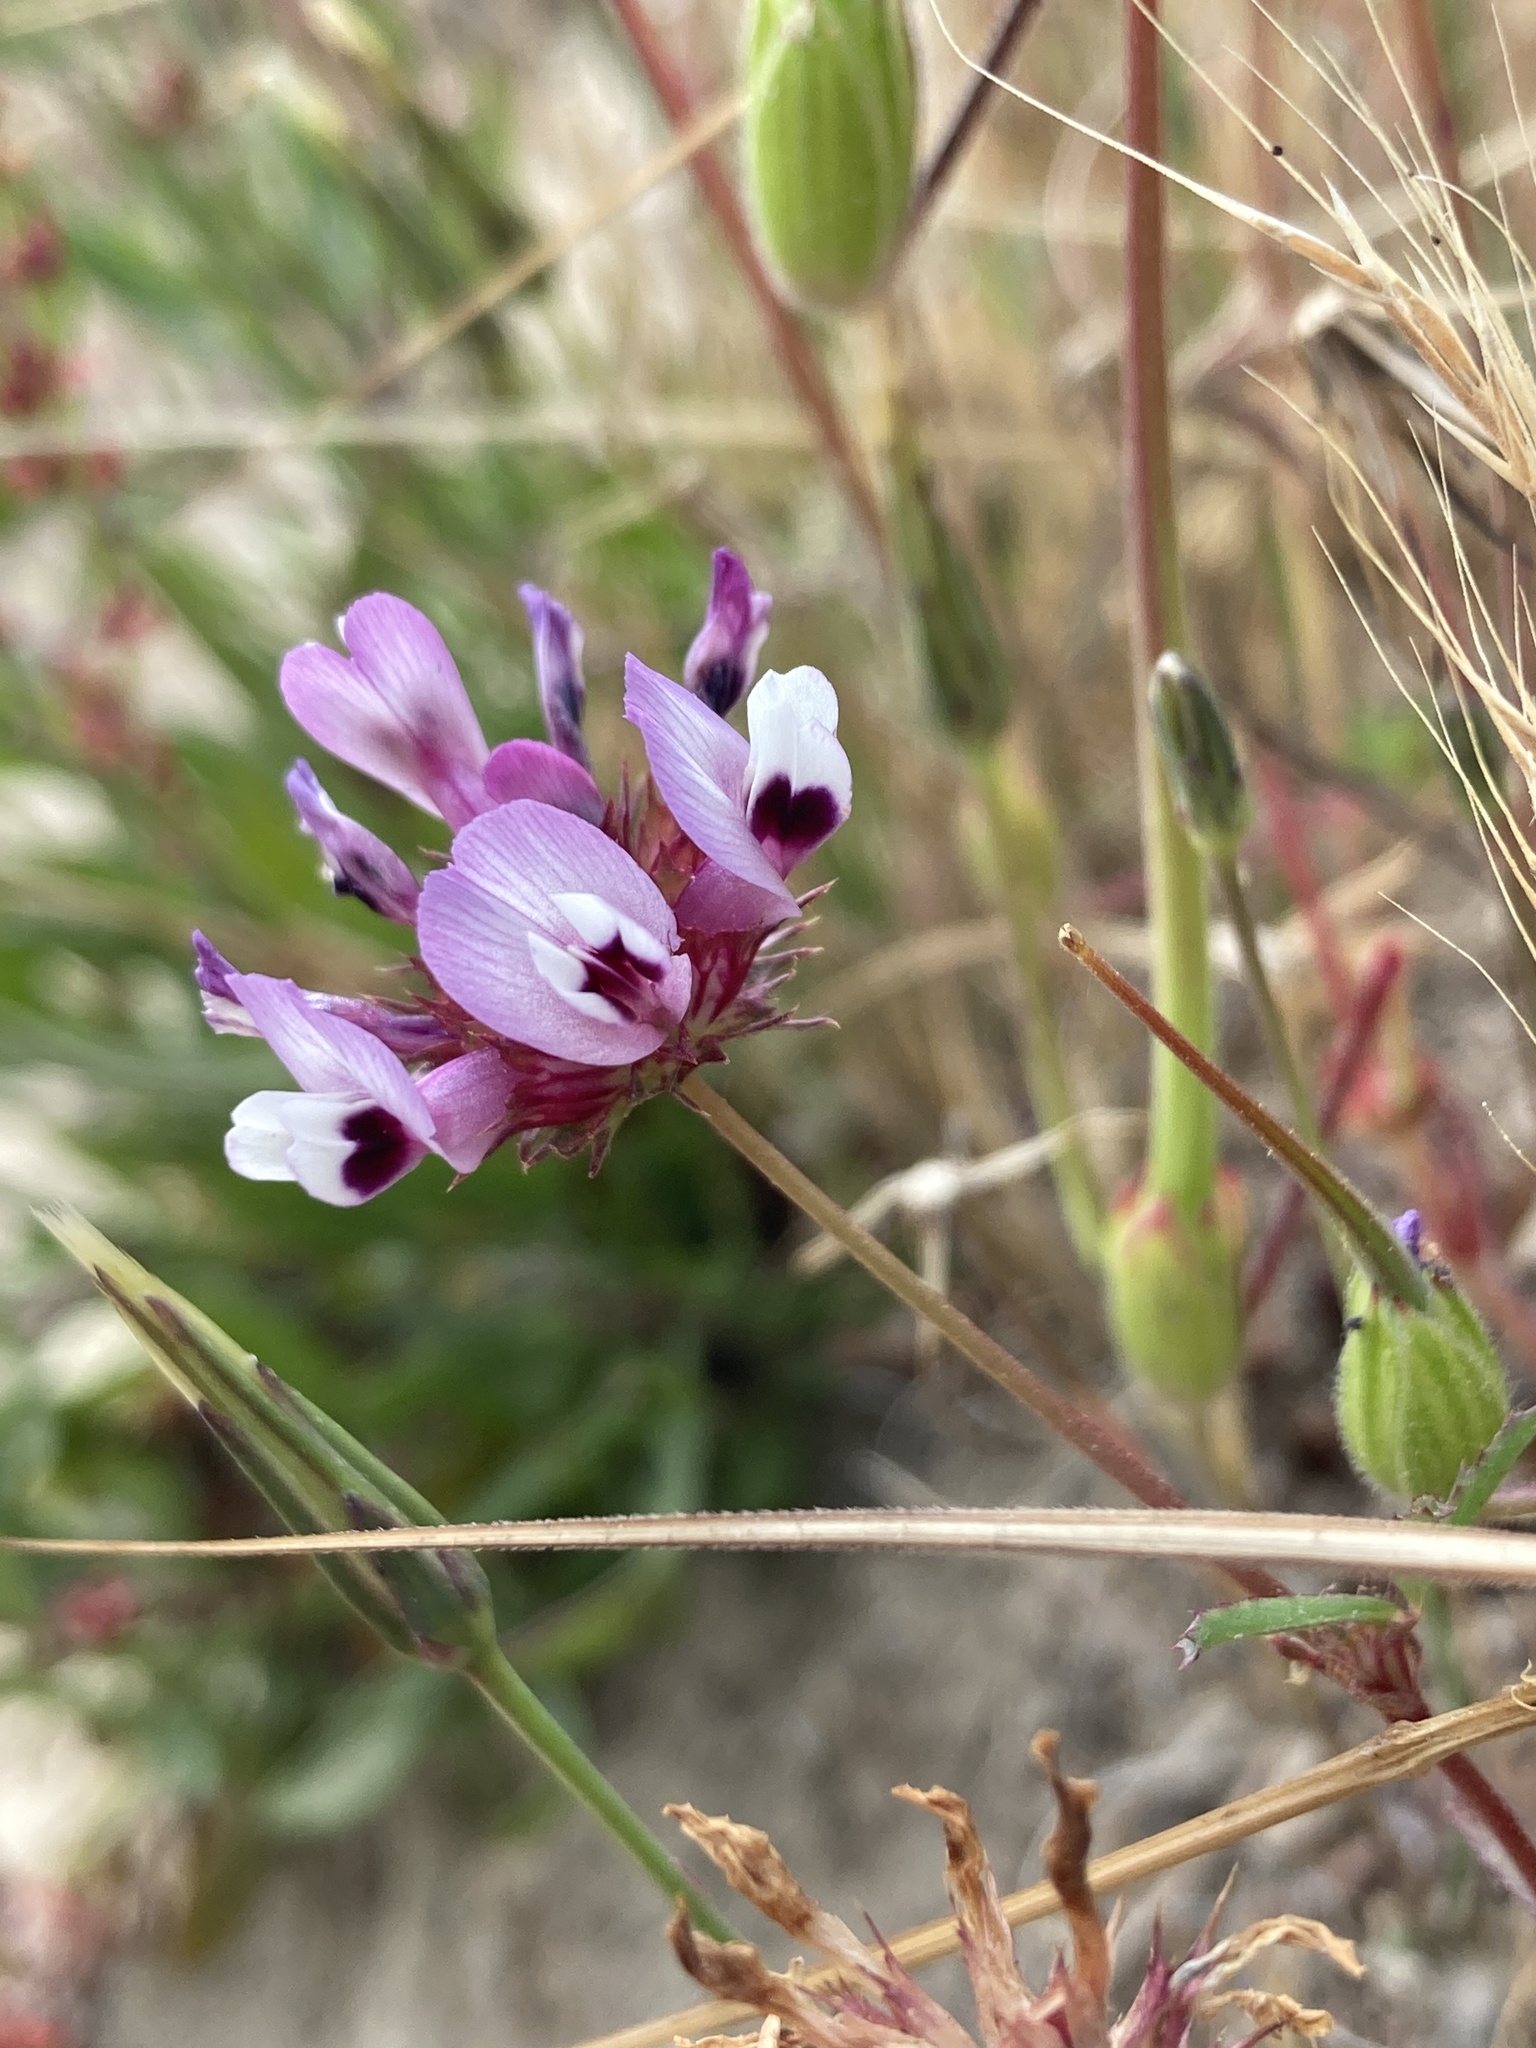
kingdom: Plantae
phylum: Tracheophyta
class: Magnoliopsida
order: Fabales
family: Fabaceae
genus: Trifolium
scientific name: Trifolium willdenovii
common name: Tomcat clover
